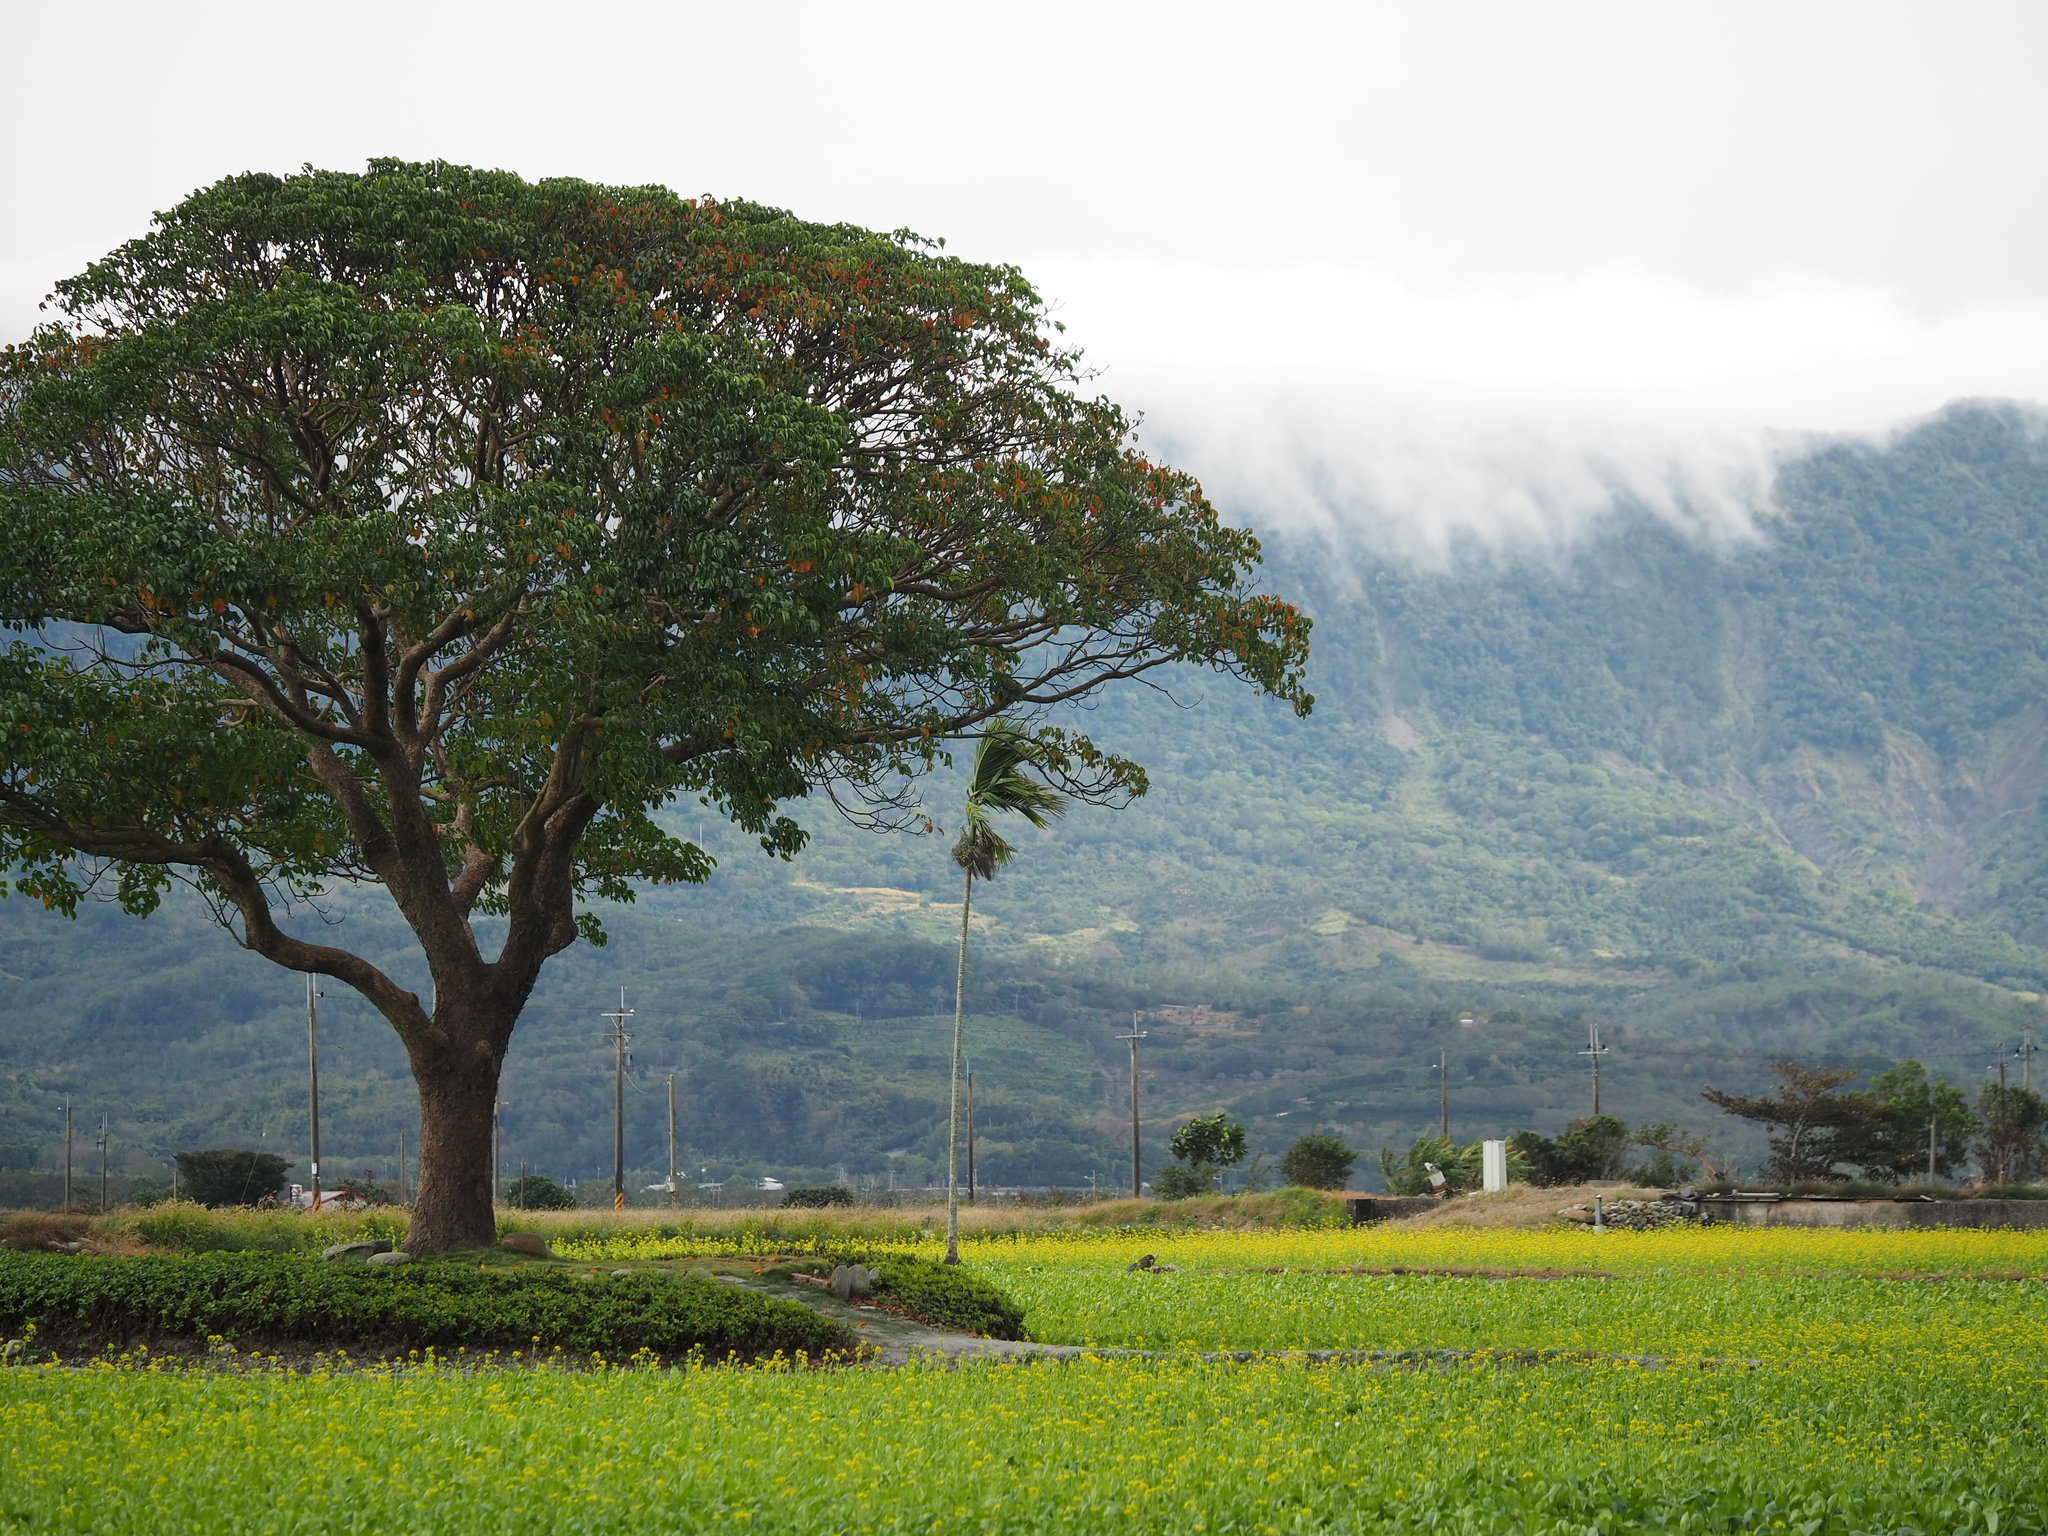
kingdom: Plantae
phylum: Tracheophyta
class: Magnoliopsida
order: Malpighiales
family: Phyllanthaceae
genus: Bischofia
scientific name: Bischofia javanica
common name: Javanese bishopwood
